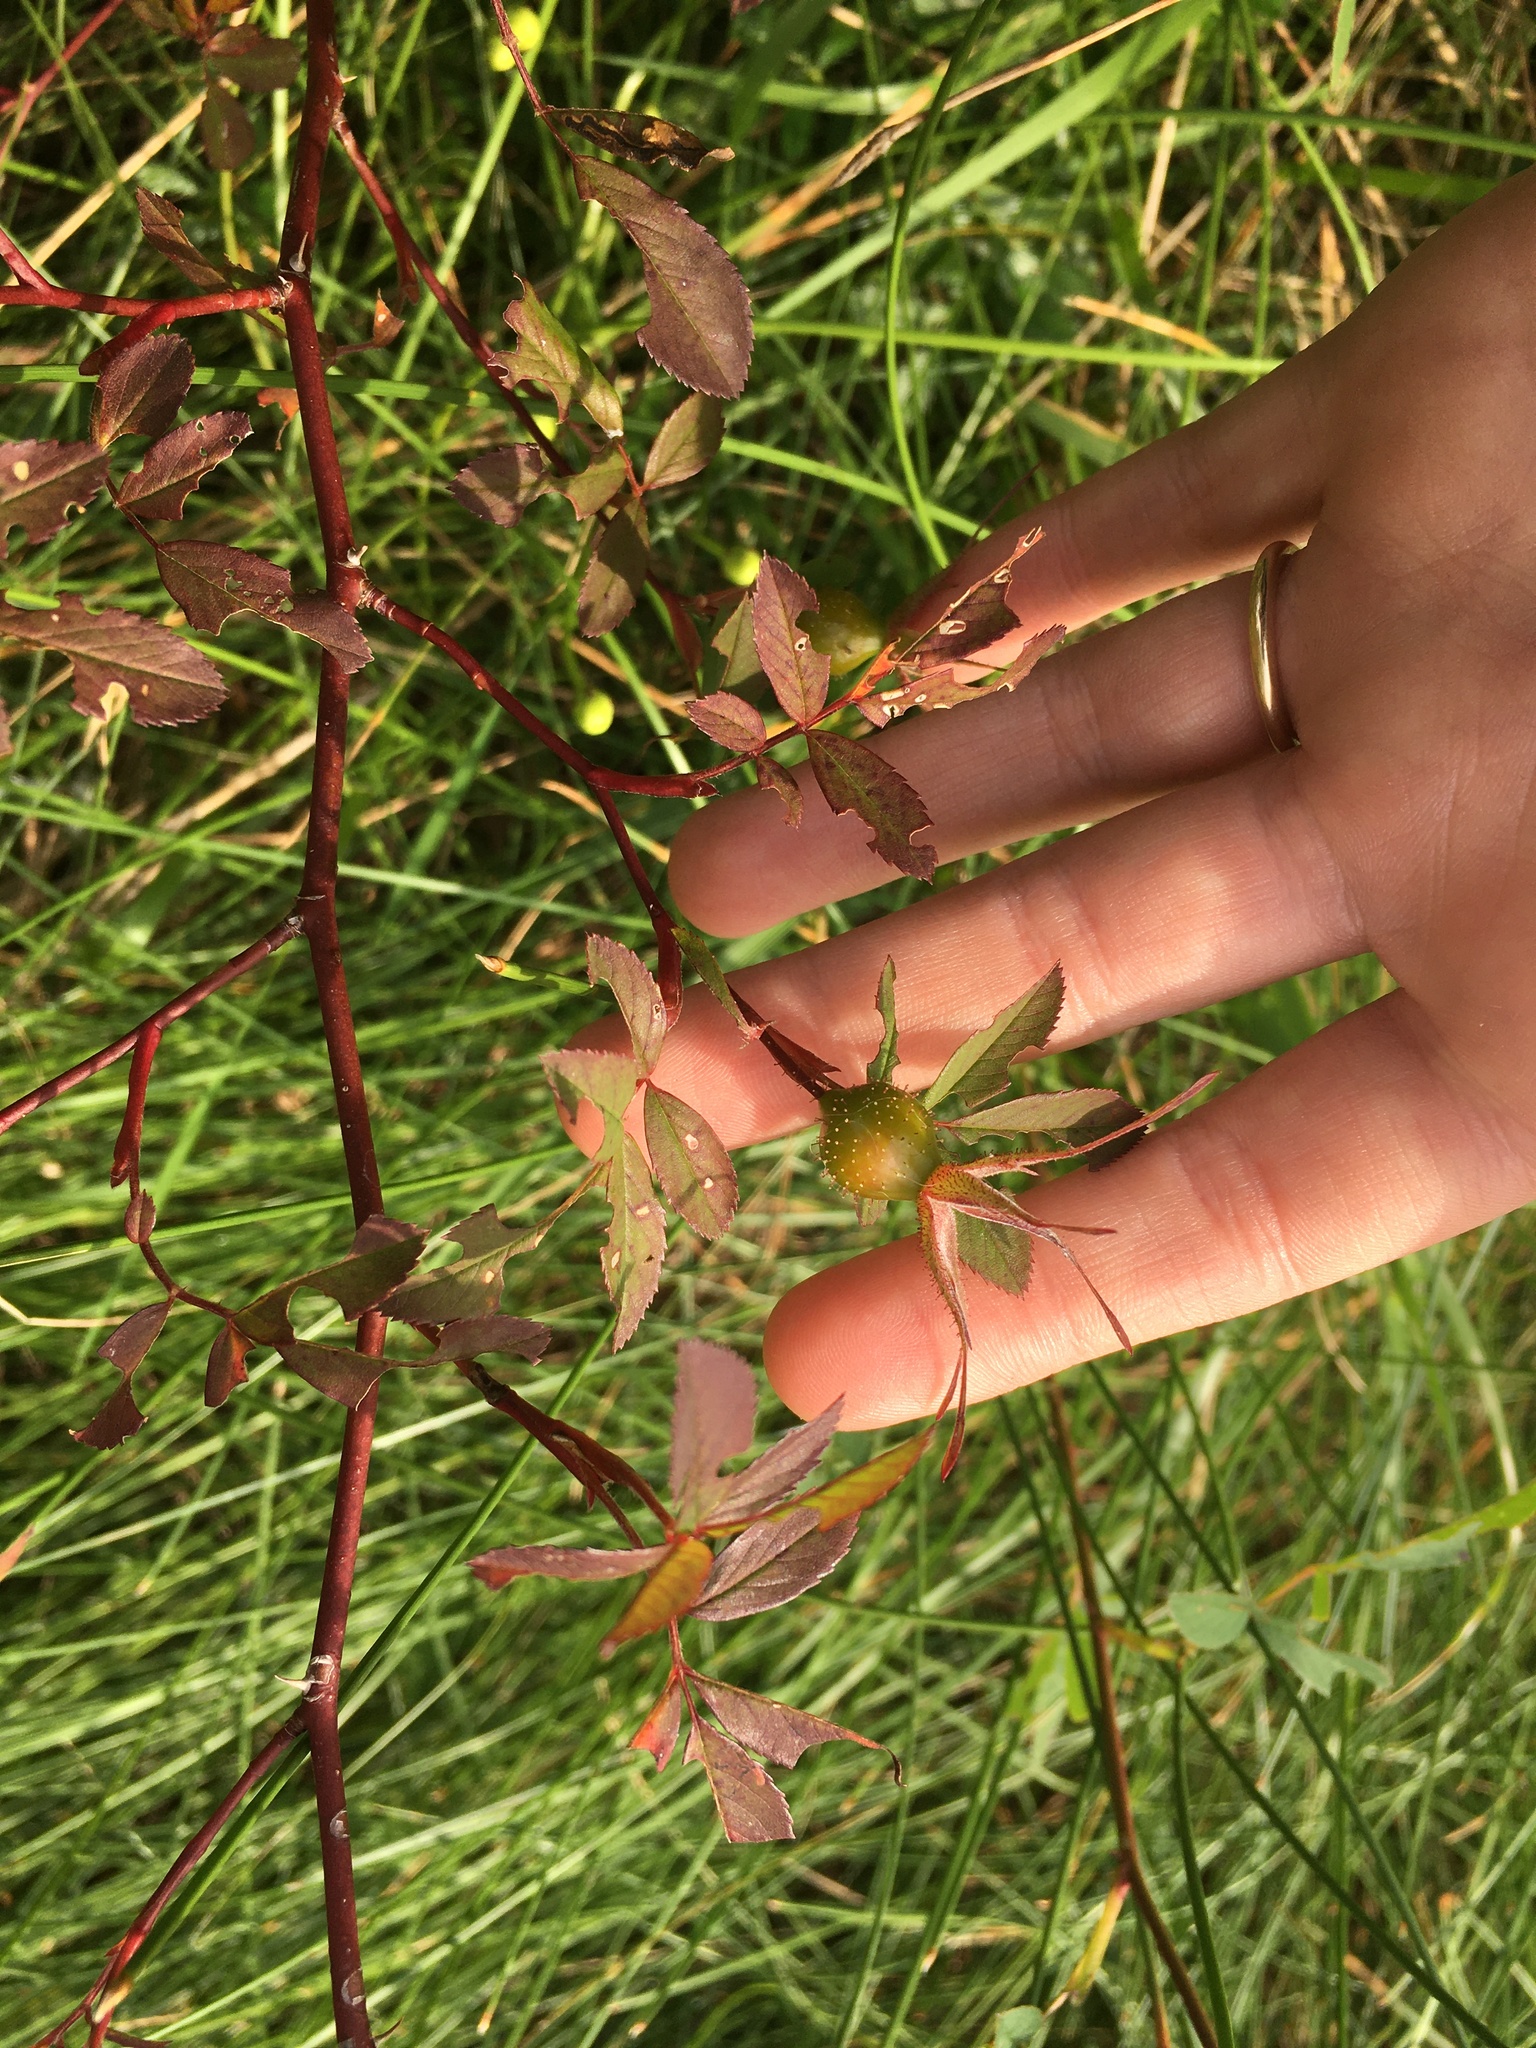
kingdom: Plantae
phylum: Tracheophyta
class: Magnoliopsida
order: Rosales
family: Rosaceae
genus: Rosa
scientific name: Rosa palustris
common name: Swamp rose
